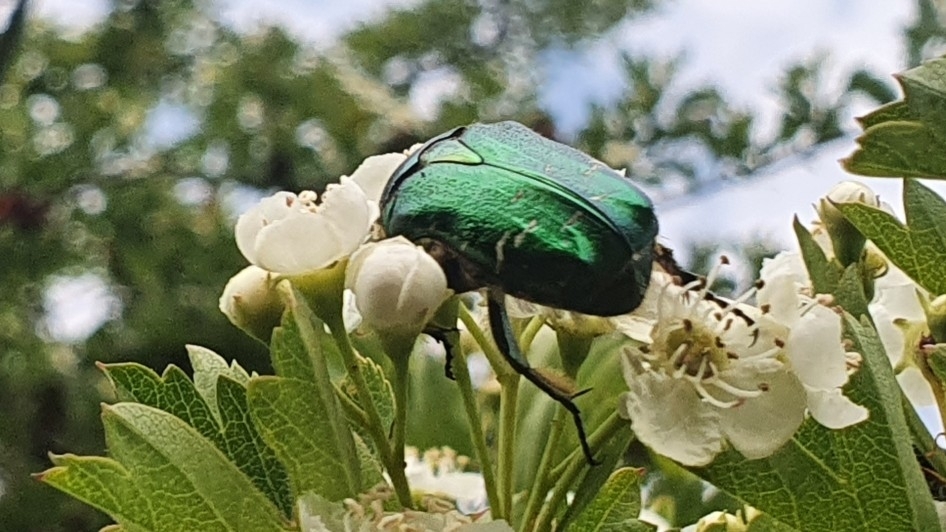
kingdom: Animalia
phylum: Arthropoda
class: Insecta
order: Coleoptera
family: Scarabaeidae
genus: Cetonia
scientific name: Cetonia aurata
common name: Rose chafer
